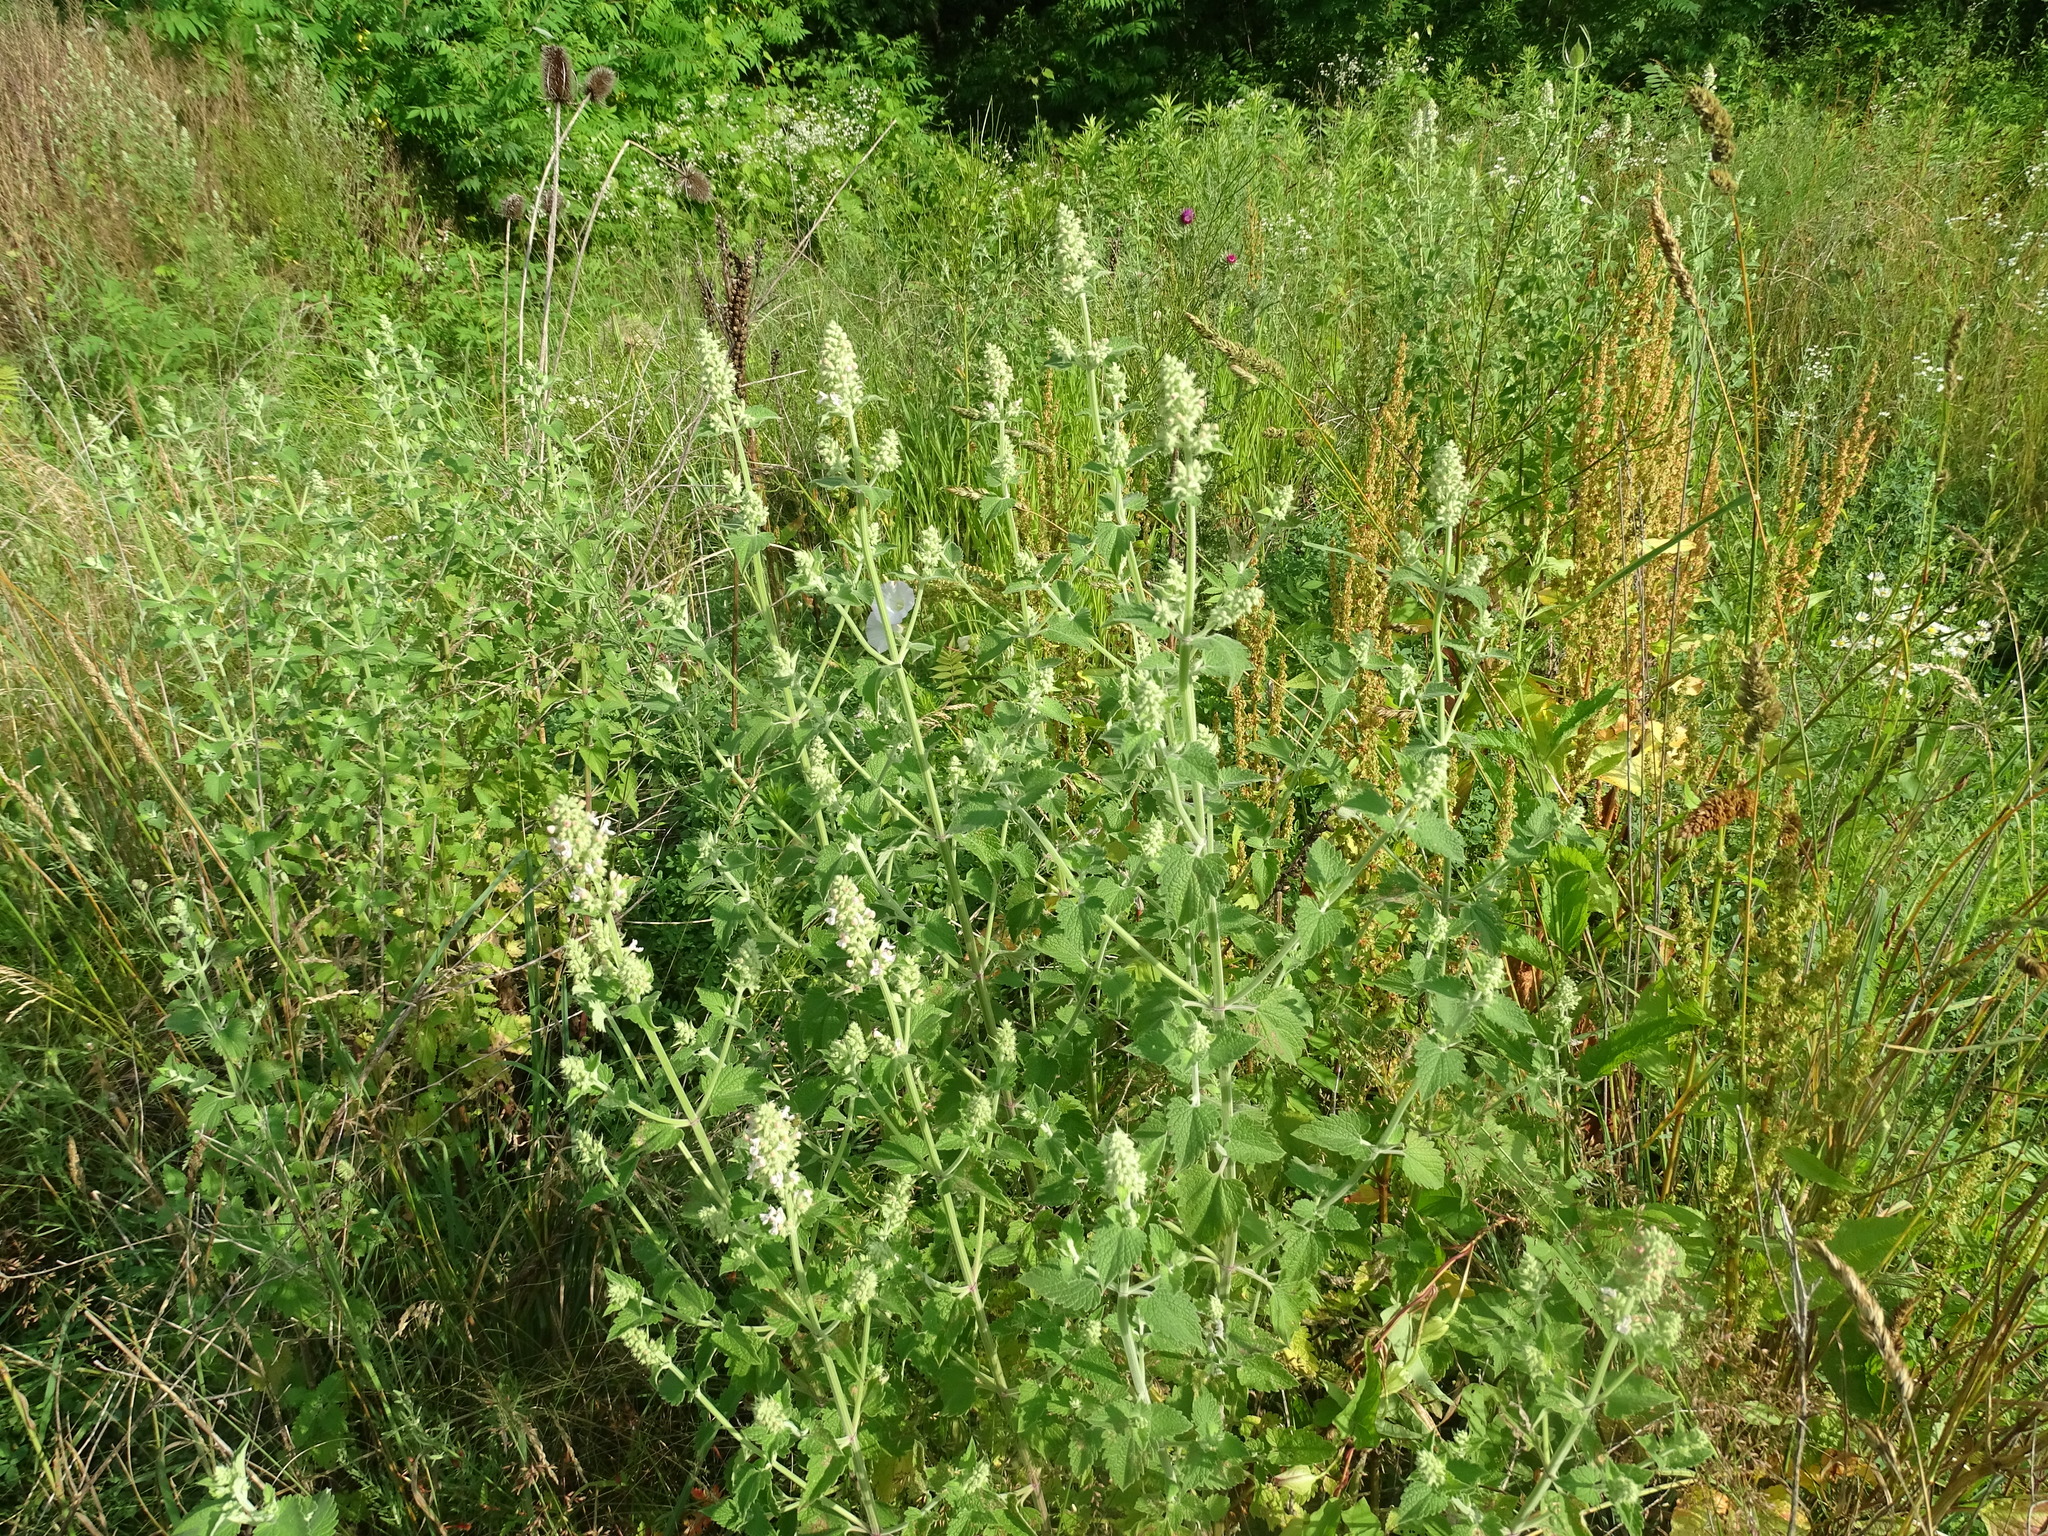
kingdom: Plantae
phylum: Tracheophyta
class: Magnoliopsida
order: Lamiales
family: Lamiaceae
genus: Nepeta
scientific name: Nepeta cataria
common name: Catnip
